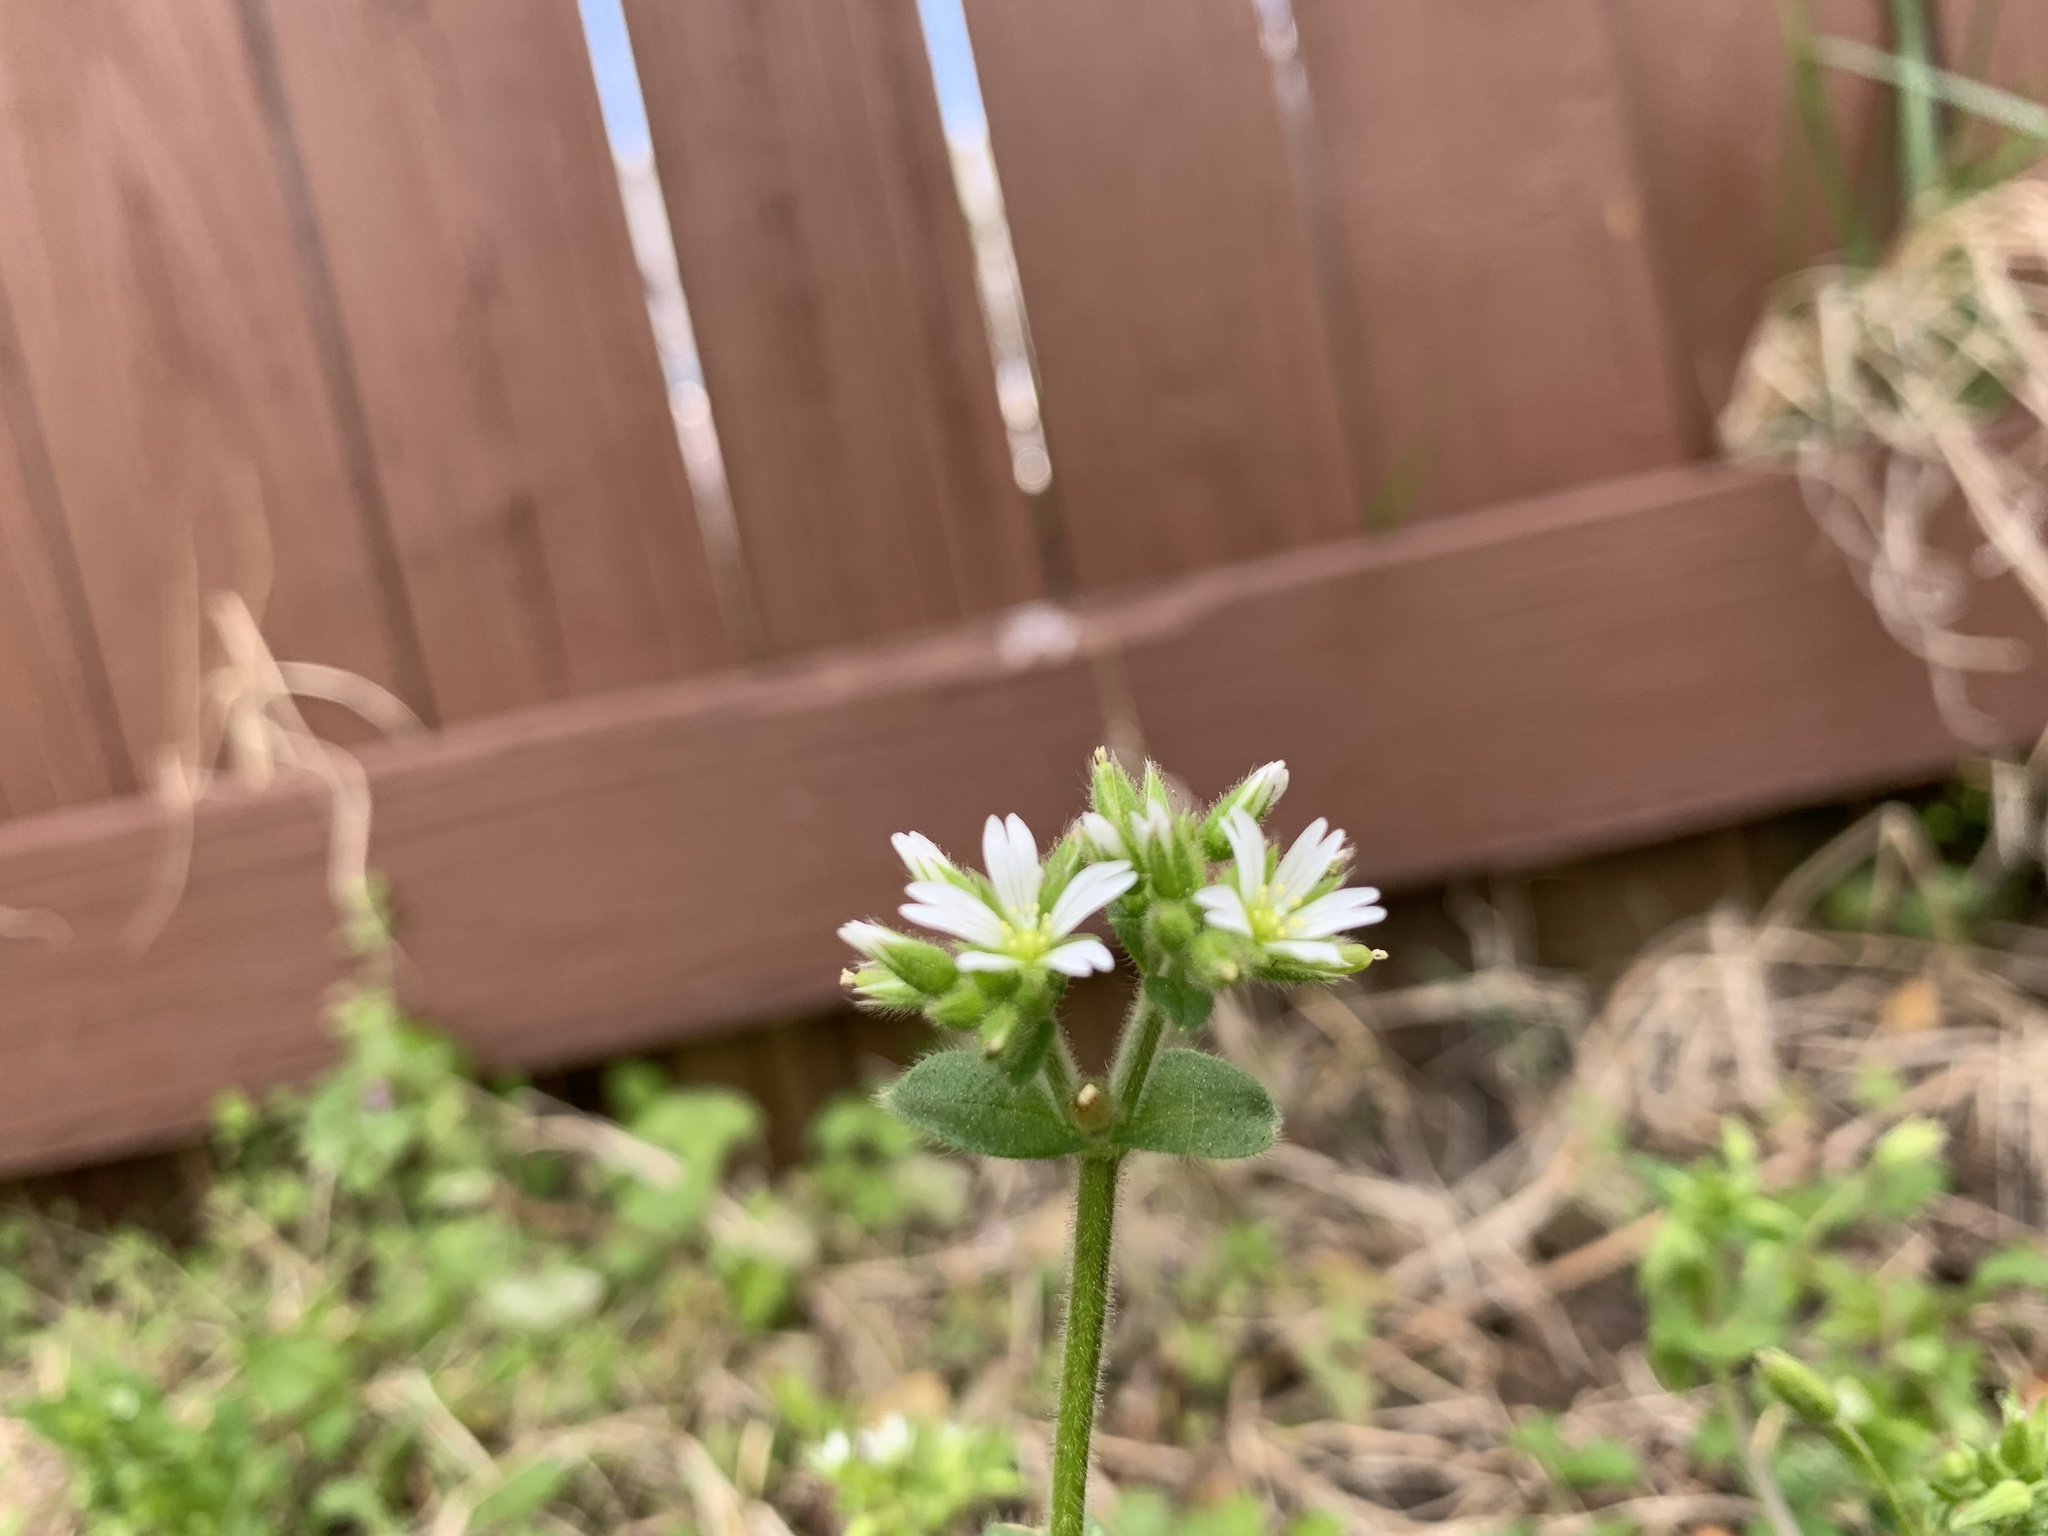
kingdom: Plantae
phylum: Tracheophyta
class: Magnoliopsida
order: Caryophyllales
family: Caryophyllaceae
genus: Cerastium
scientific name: Cerastium glomeratum
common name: Sticky chickweed
